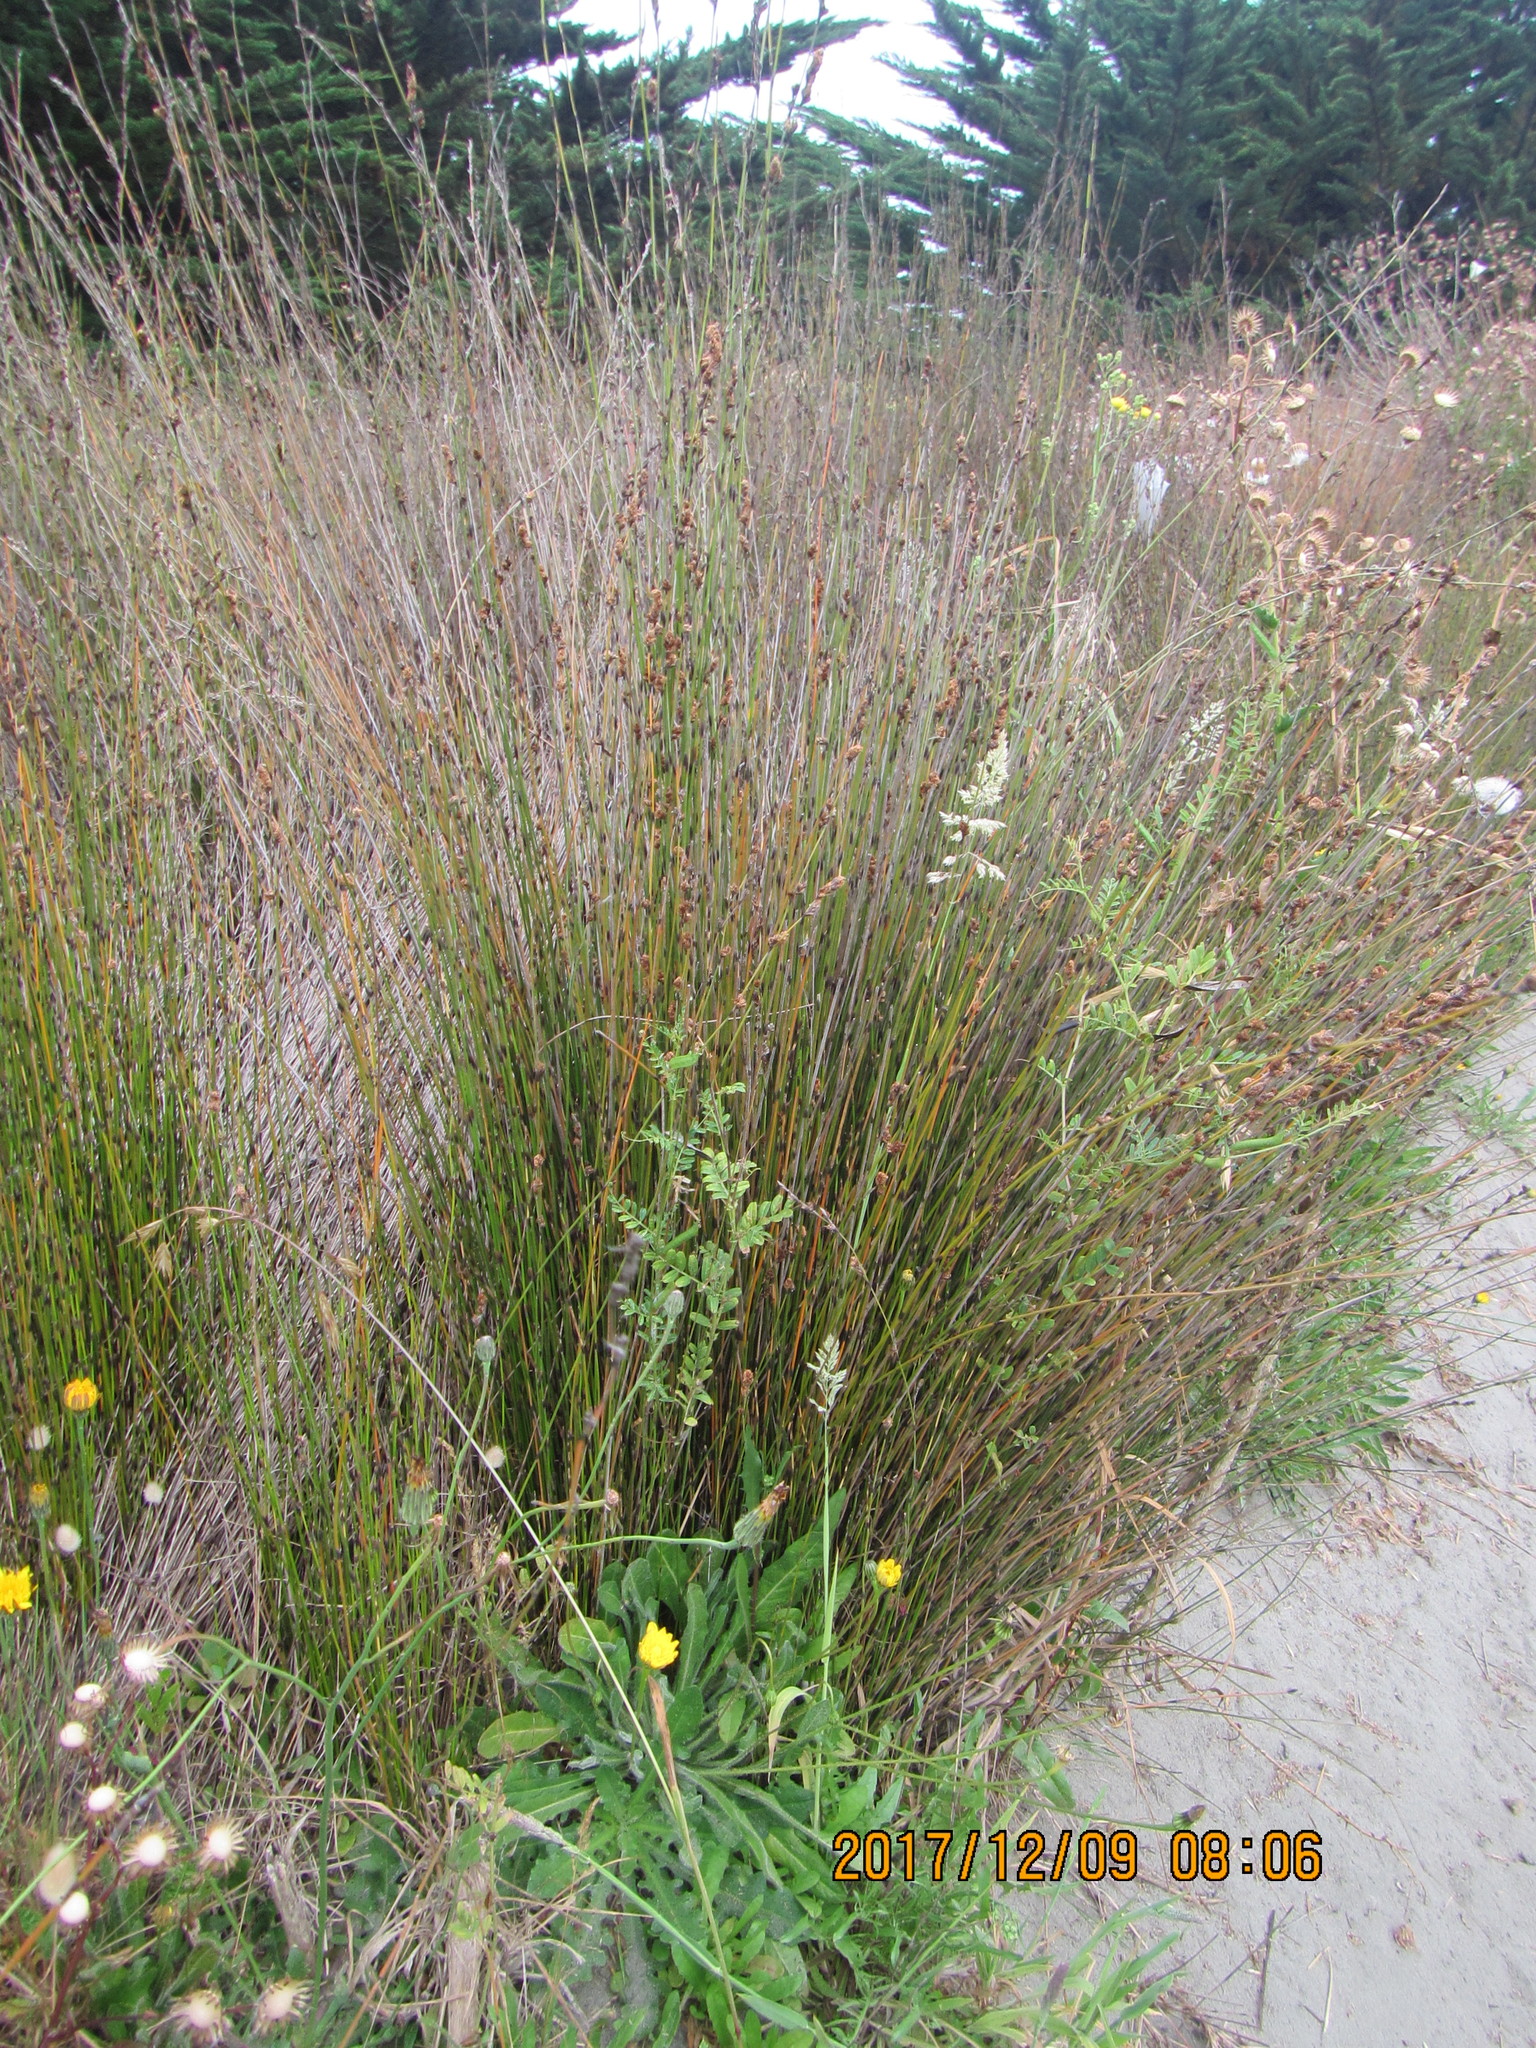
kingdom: Plantae
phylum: Tracheophyta
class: Liliopsida
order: Poales
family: Restionaceae
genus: Apodasmia
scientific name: Apodasmia similis
